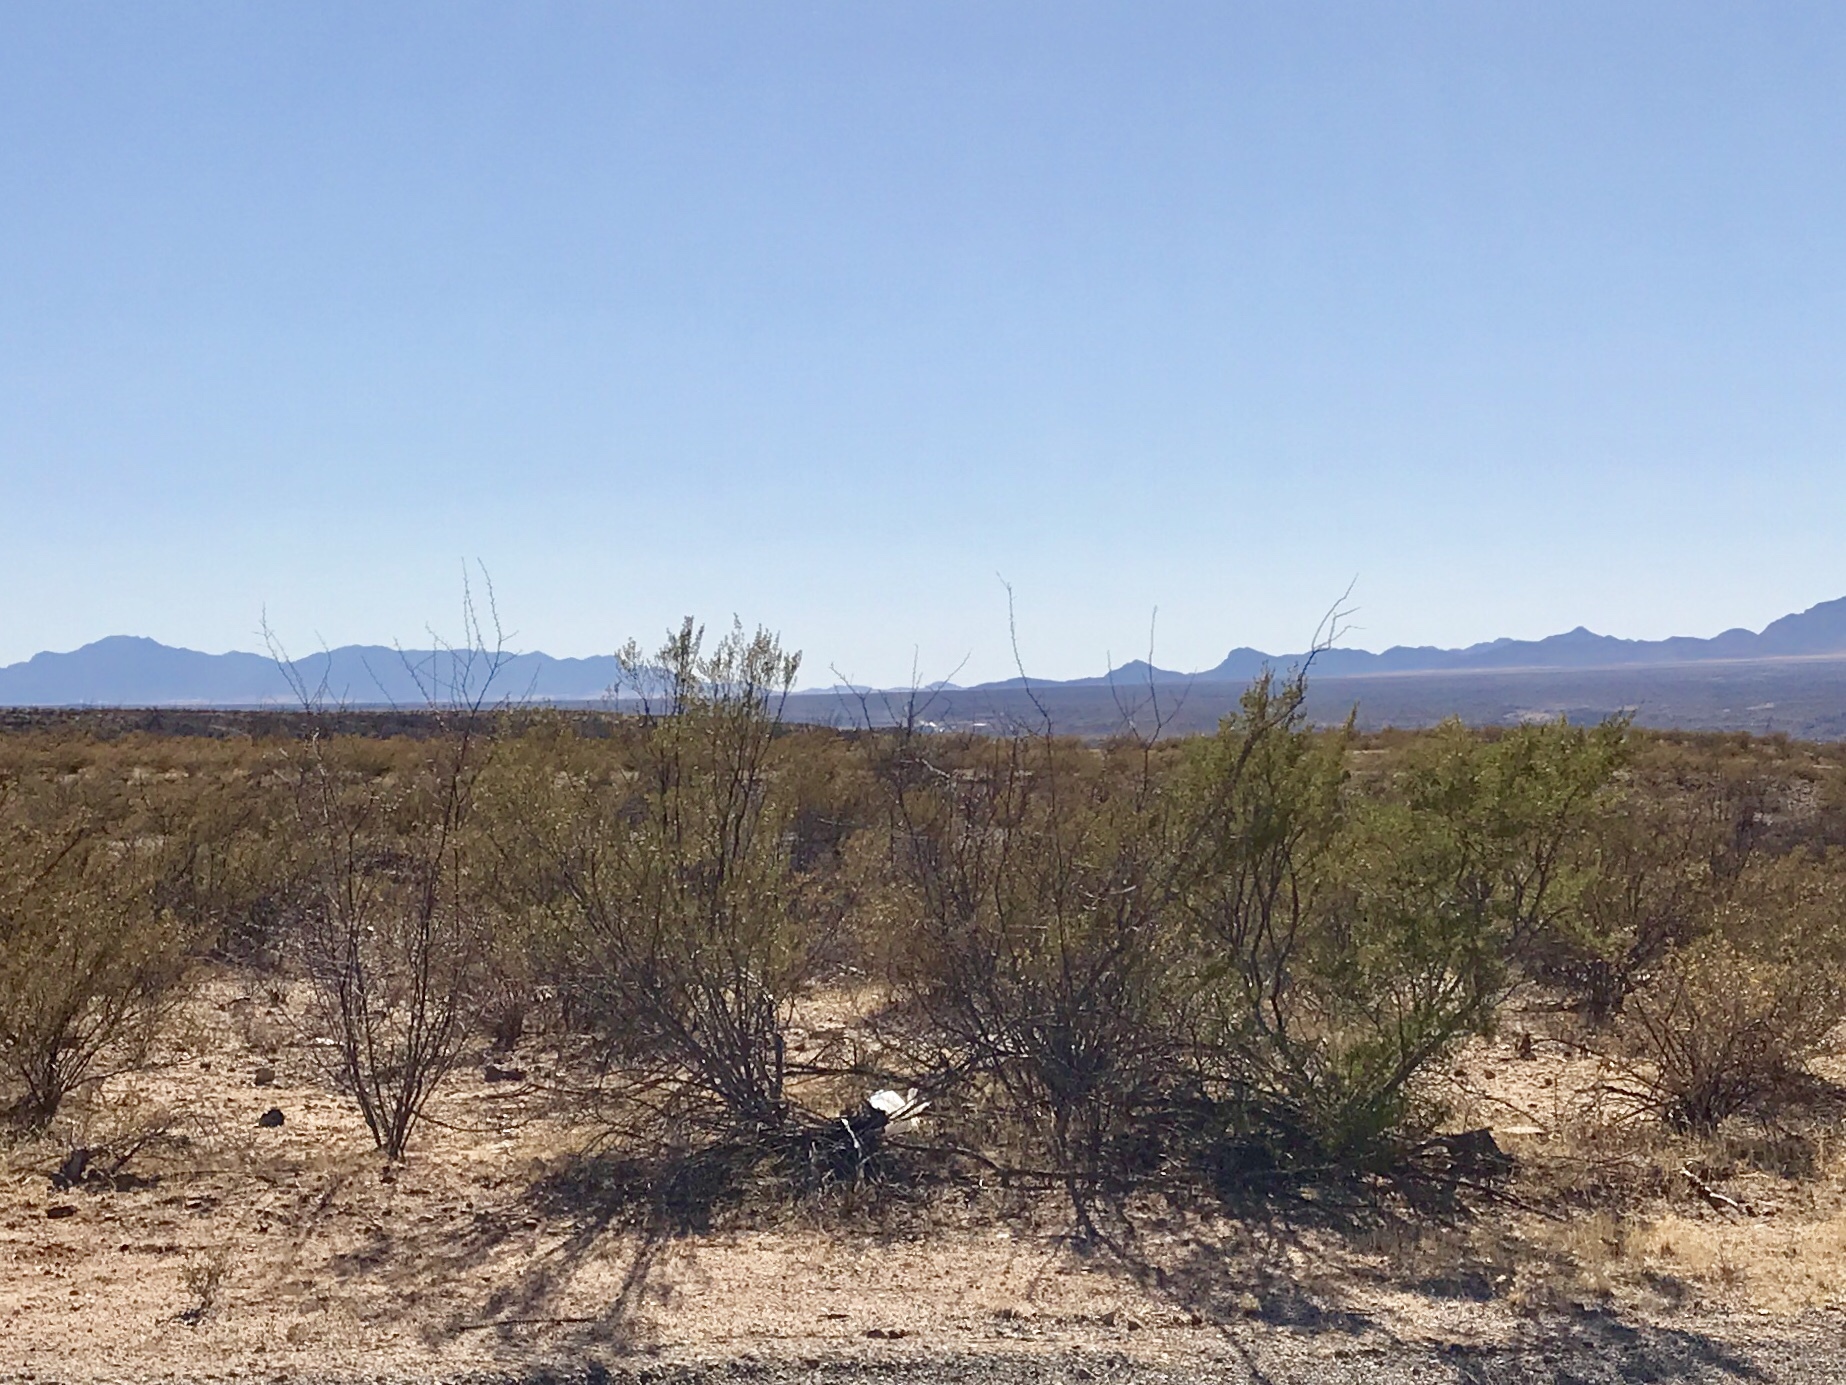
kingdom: Plantae
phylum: Tracheophyta
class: Magnoliopsida
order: Zygophyllales
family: Zygophyllaceae
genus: Larrea
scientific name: Larrea tridentata
